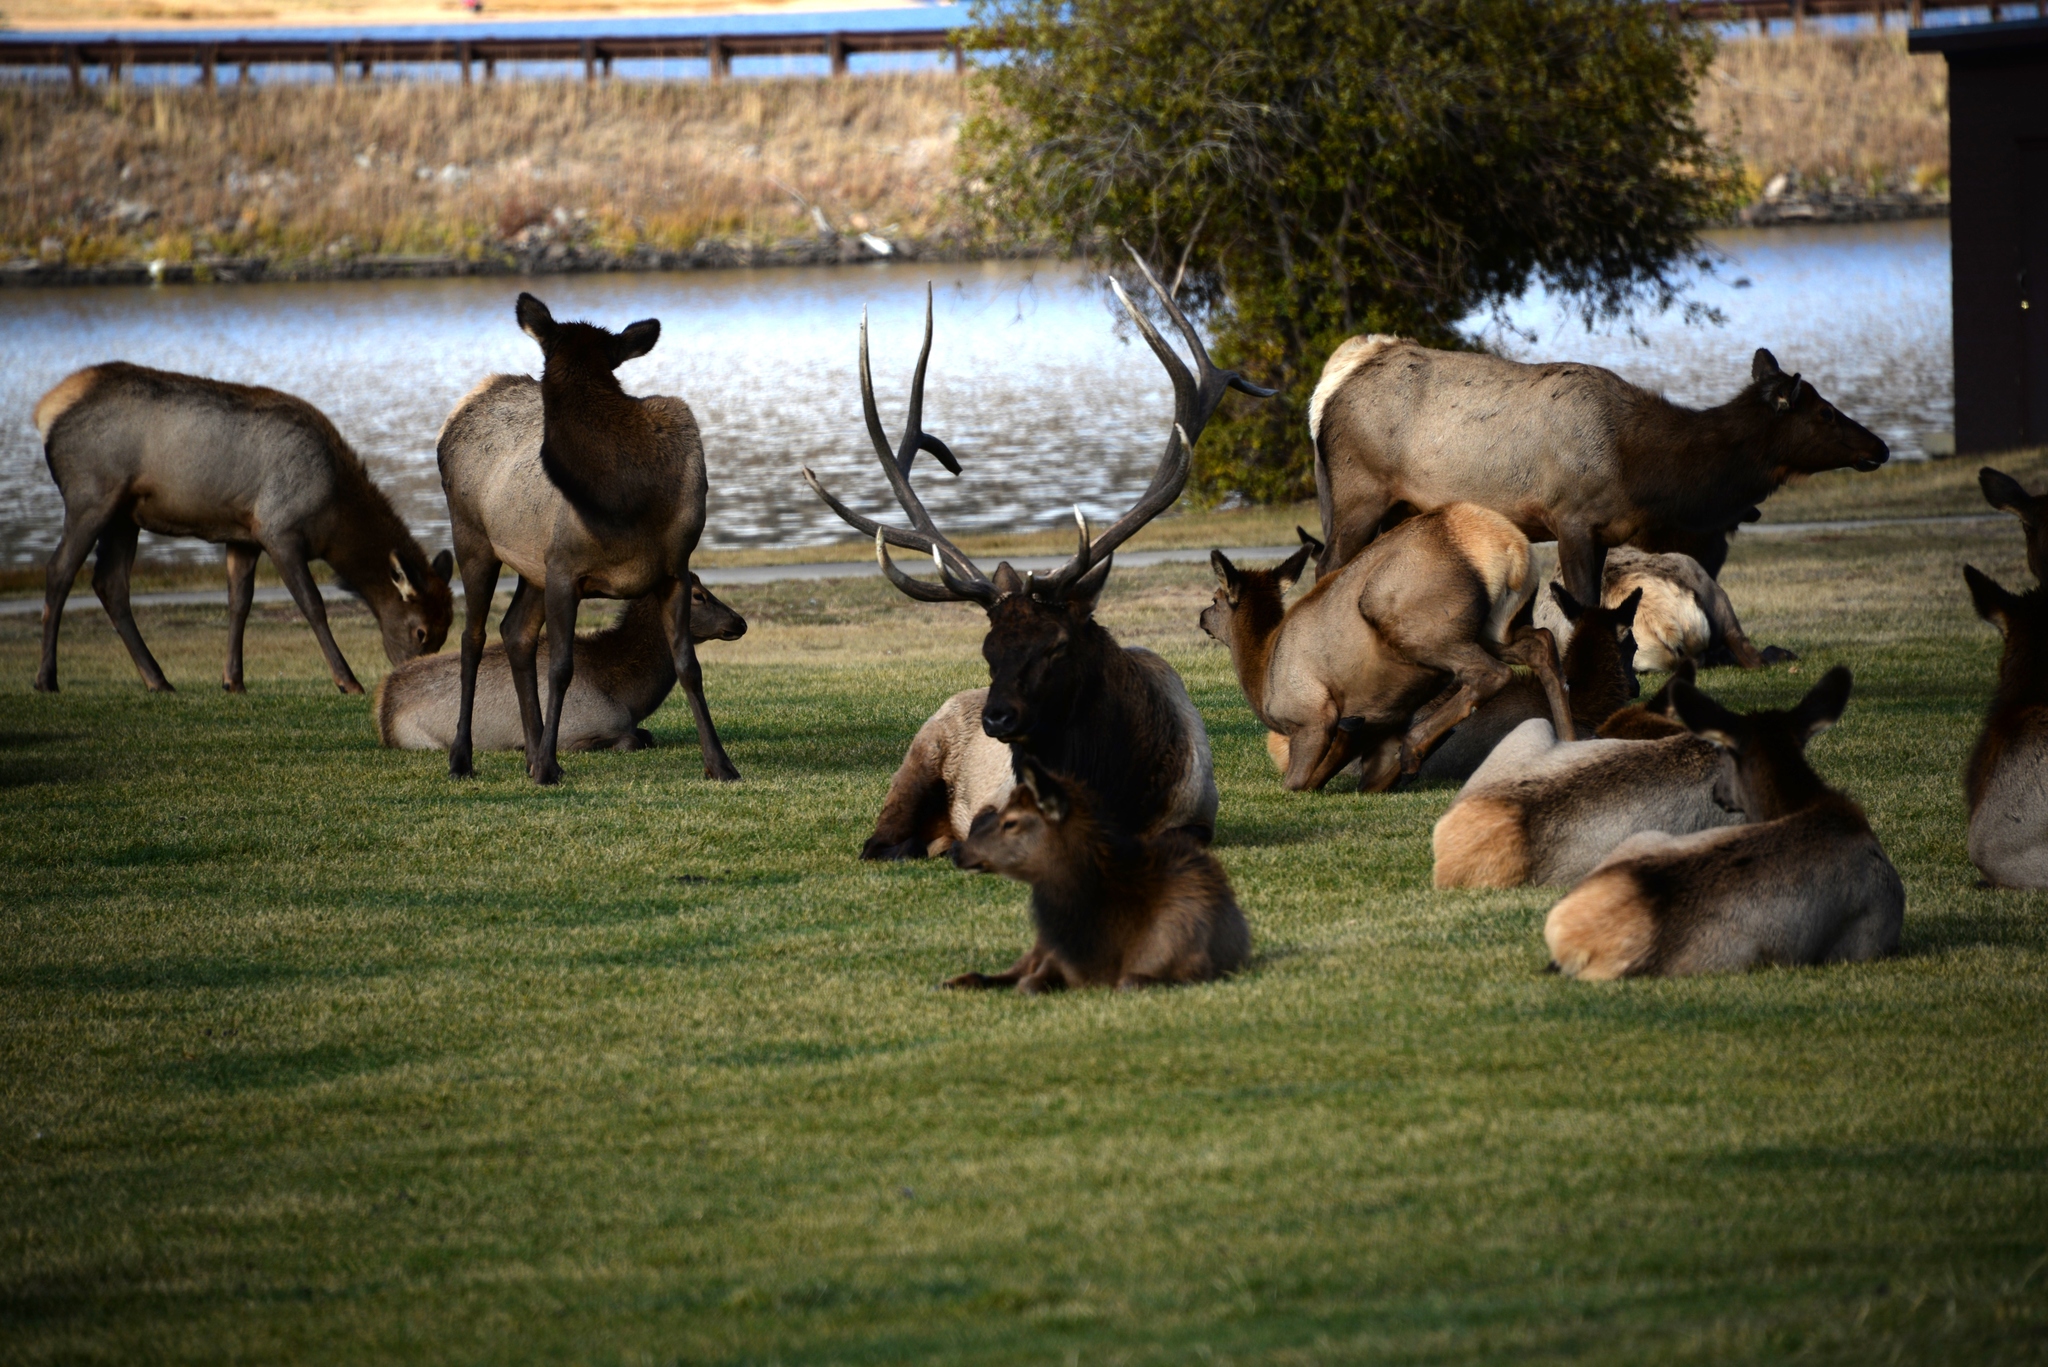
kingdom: Animalia
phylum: Chordata
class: Mammalia
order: Artiodactyla
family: Cervidae
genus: Cervus
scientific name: Cervus elaphus
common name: Red deer
